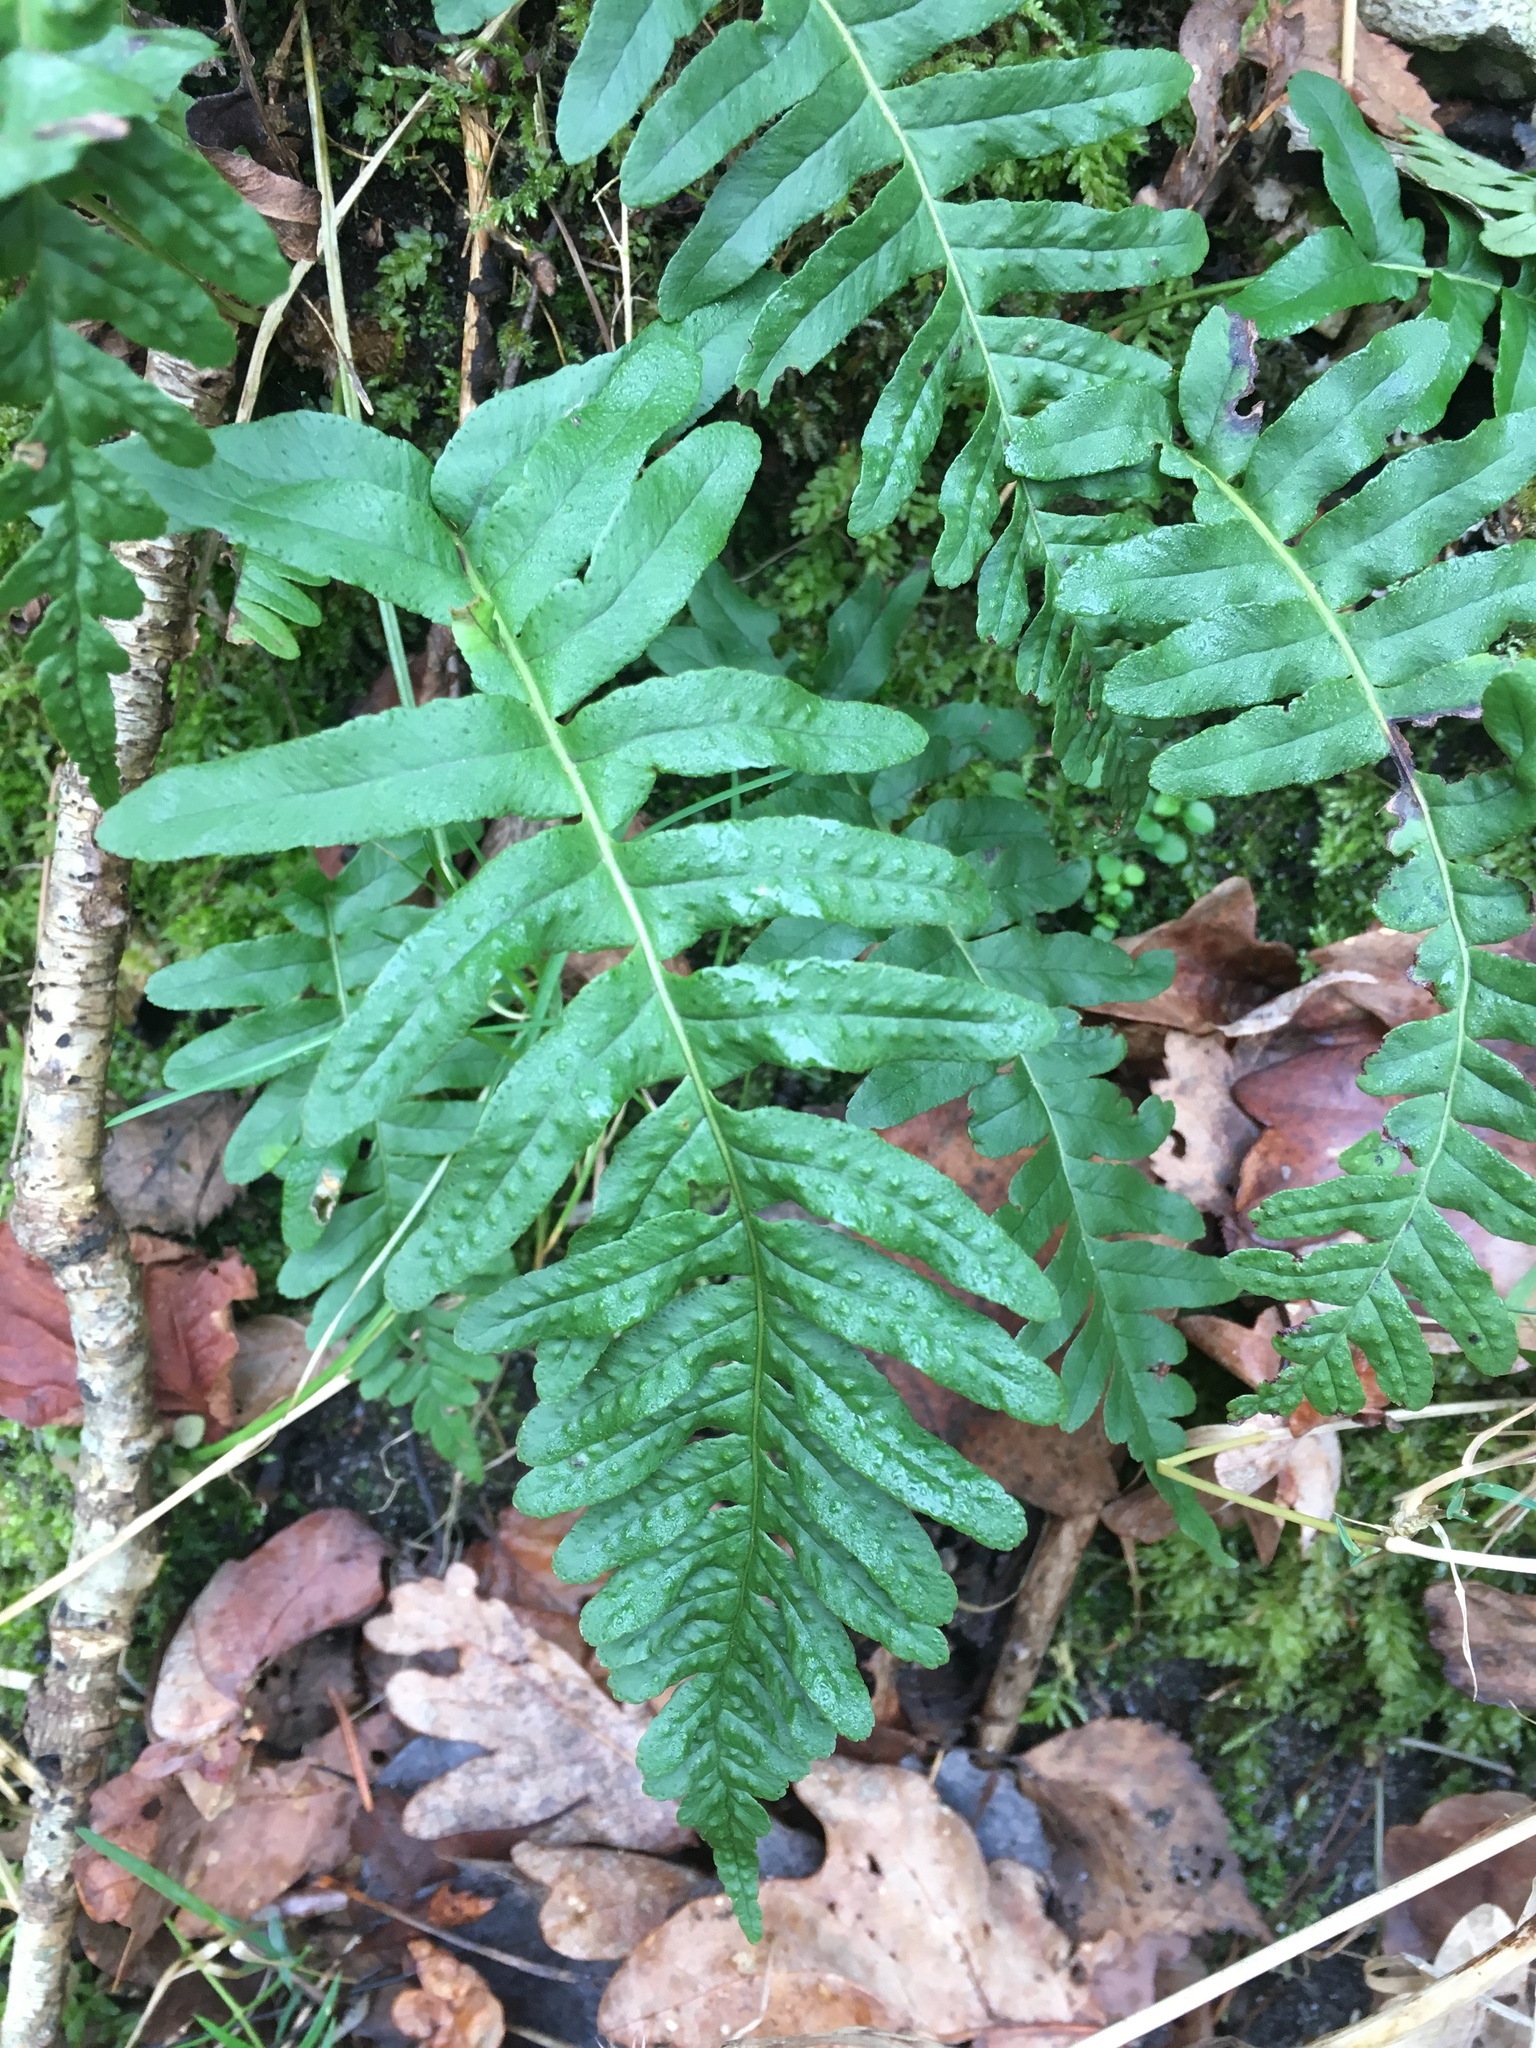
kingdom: Plantae
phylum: Tracheophyta
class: Polypodiopsida
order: Polypodiales
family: Polypodiaceae
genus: Polypodium
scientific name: Polypodium vulgare
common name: Common polypody
